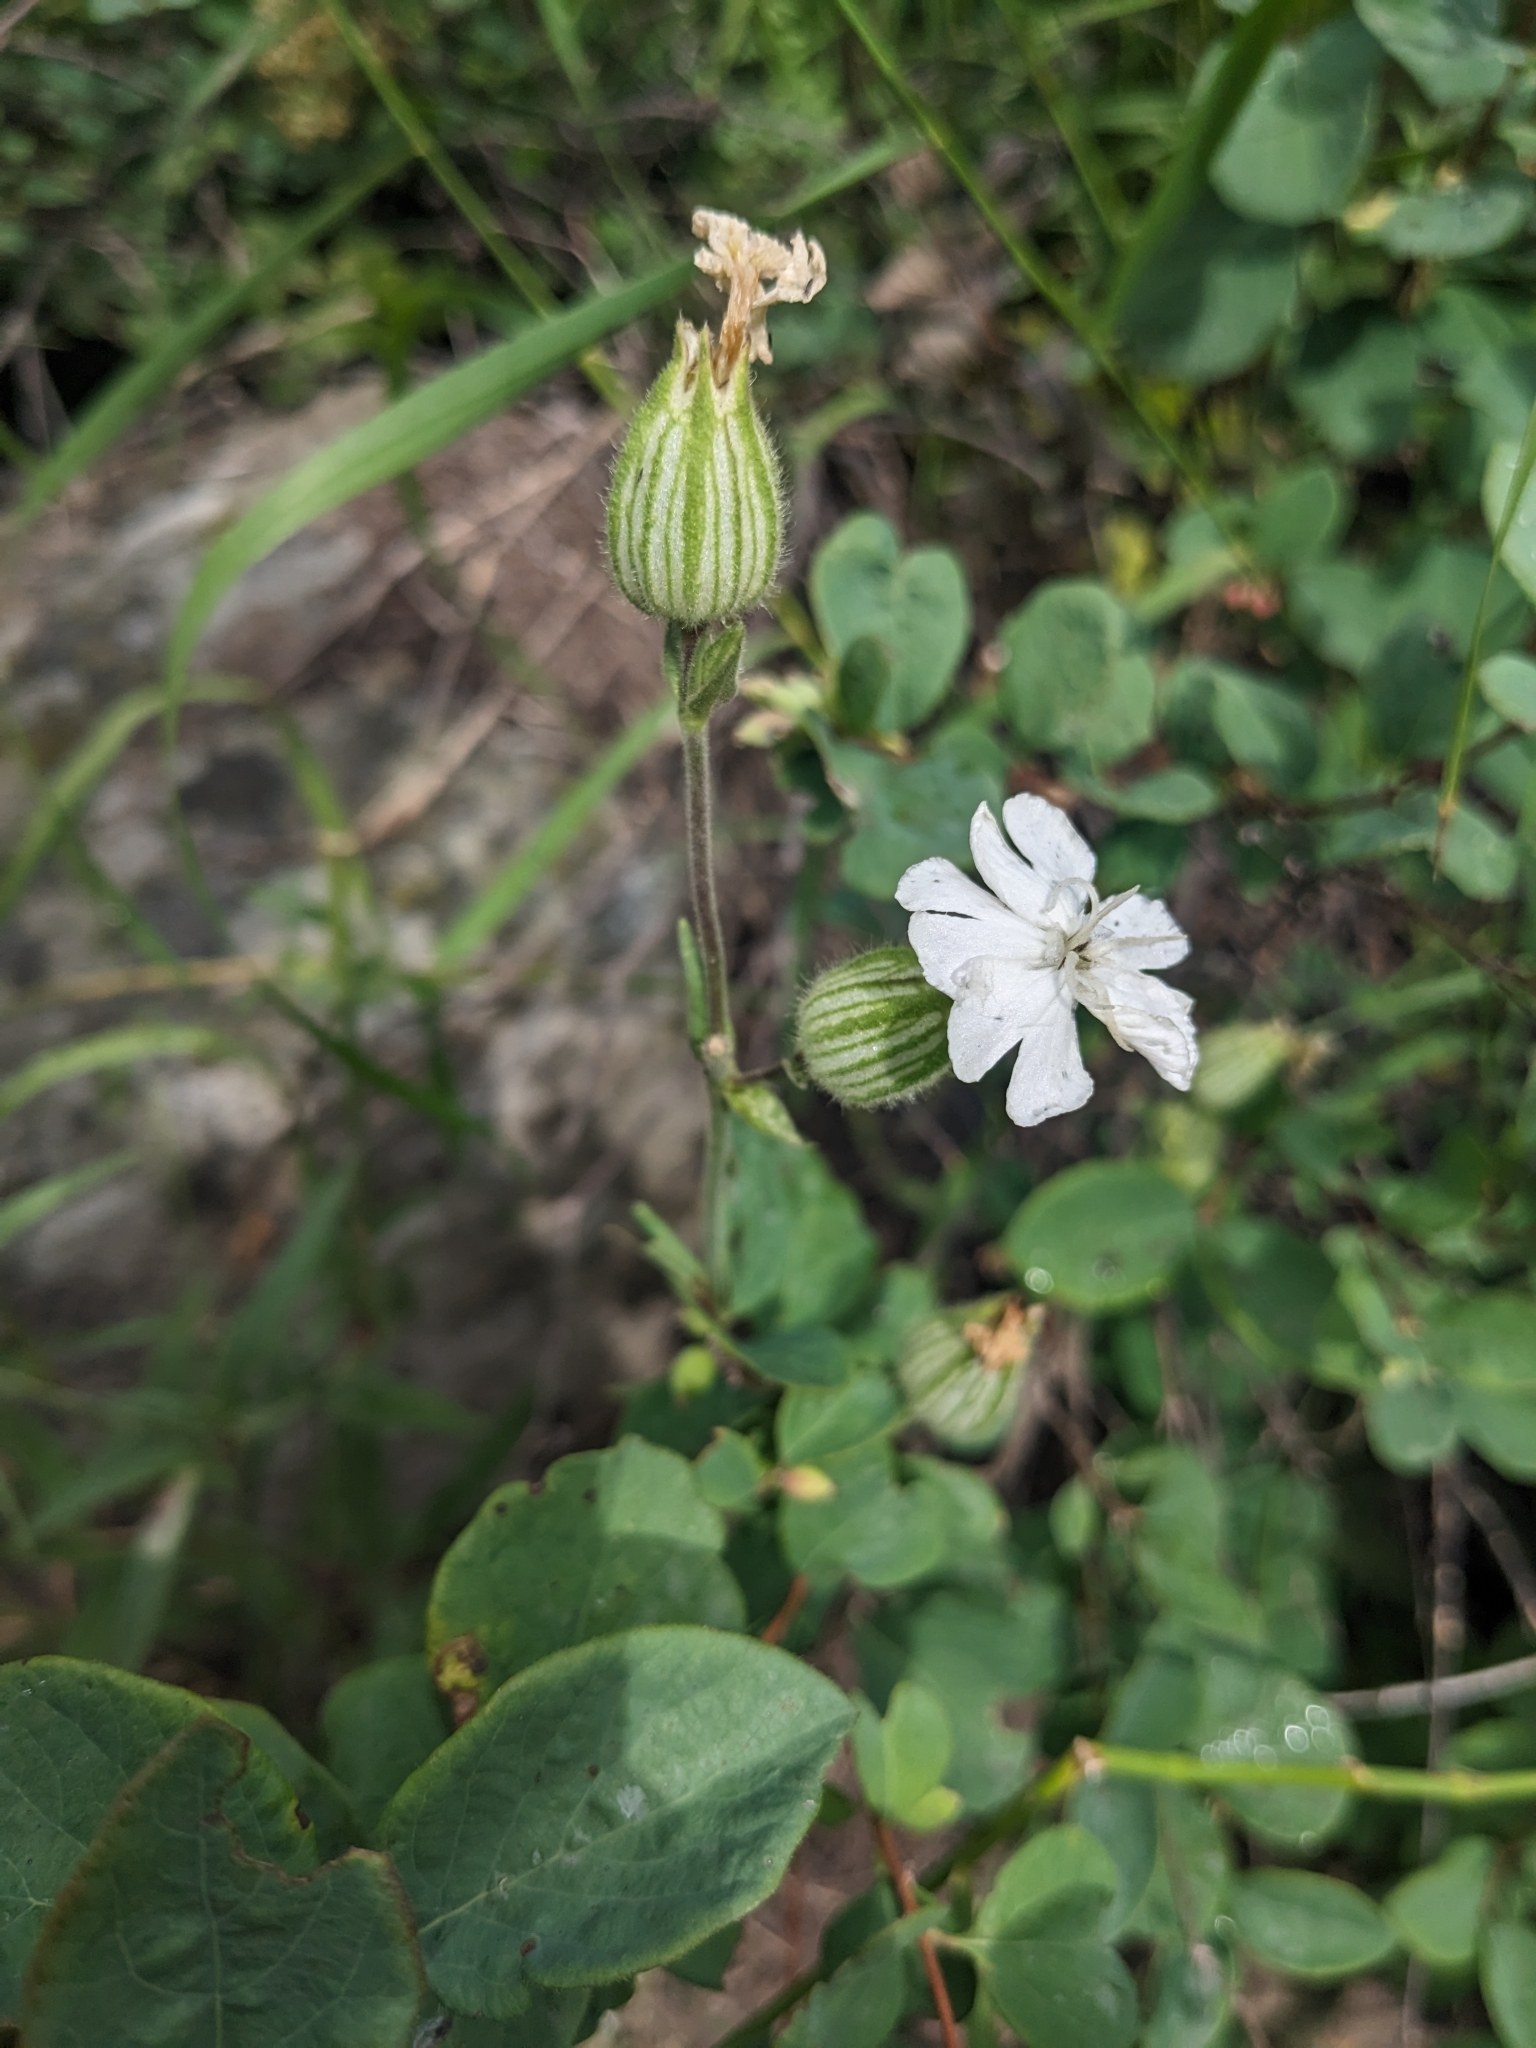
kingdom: Plantae
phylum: Tracheophyta
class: Magnoliopsida
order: Caryophyllales
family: Caryophyllaceae
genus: Silene
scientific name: Silene latifolia
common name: White campion
